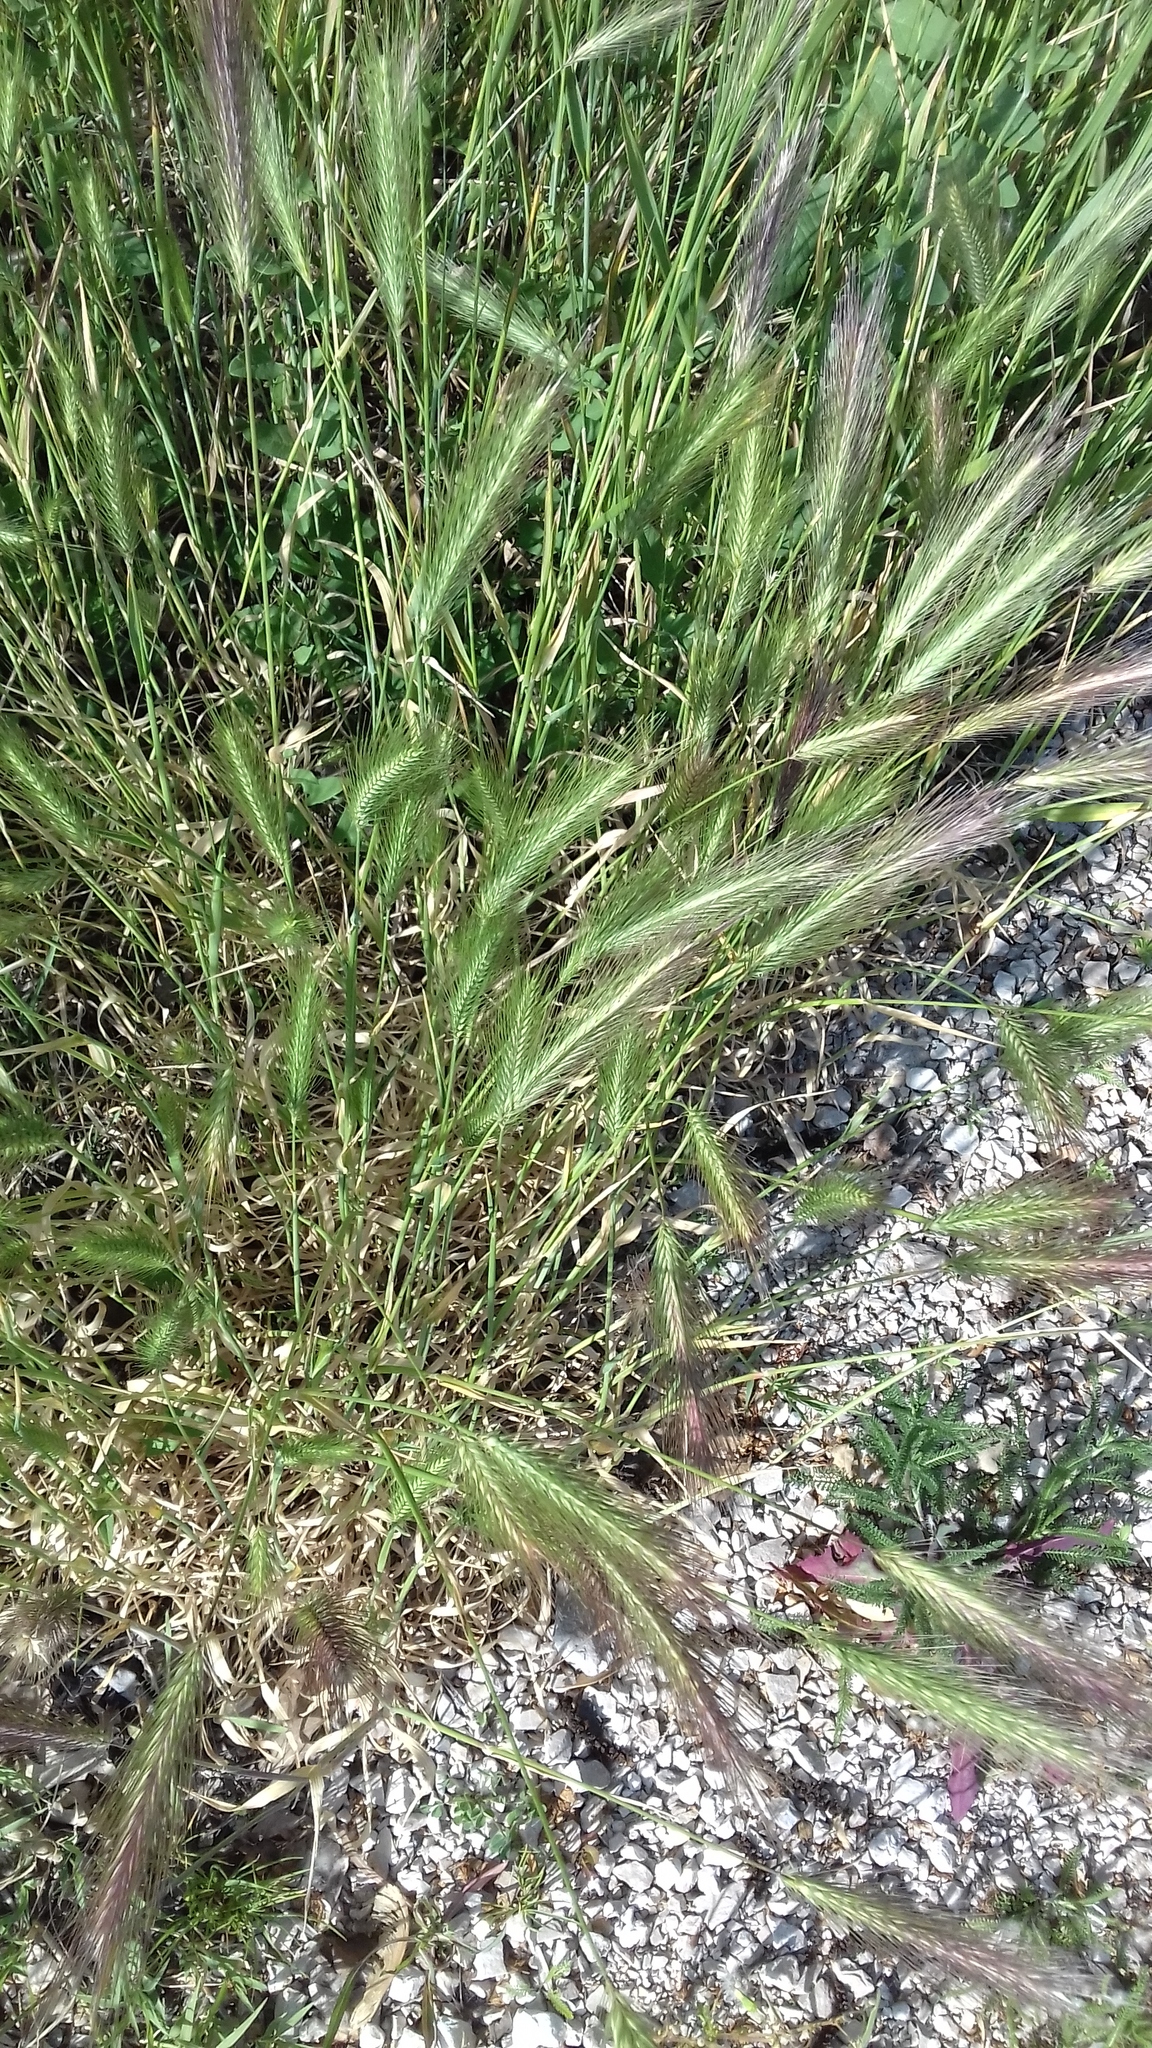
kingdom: Plantae
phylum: Tracheophyta
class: Liliopsida
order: Poales
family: Poaceae
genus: Hordeum
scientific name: Hordeum murinum
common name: Wall barley
